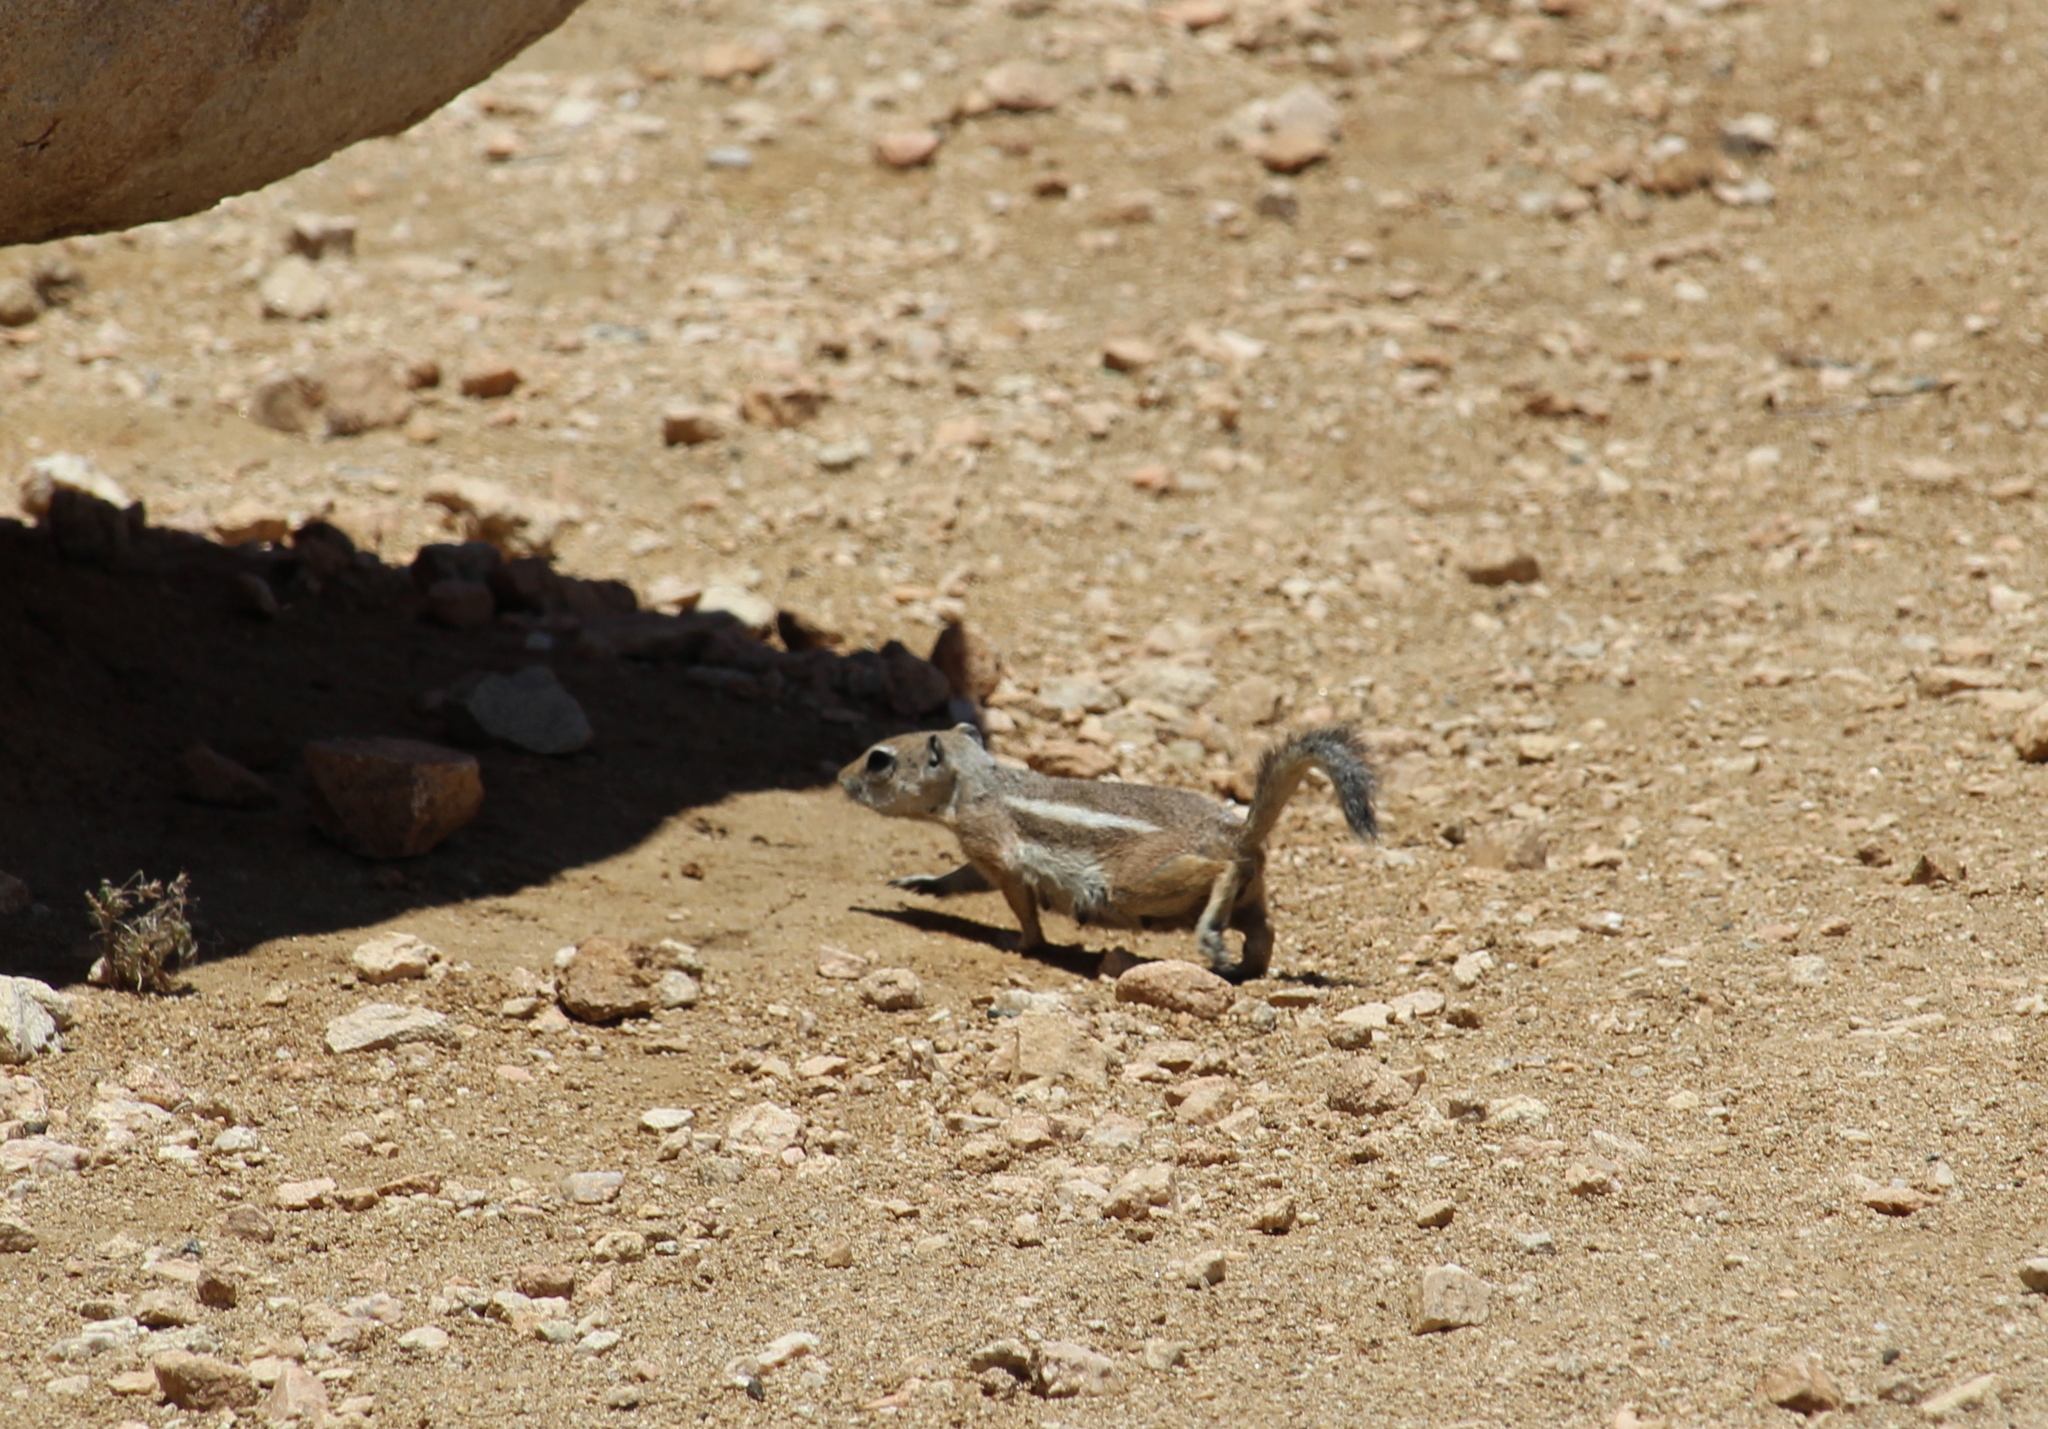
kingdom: Animalia
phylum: Chordata
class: Mammalia
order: Rodentia
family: Sciuridae
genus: Ammospermophilus
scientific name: Ammospermophilus leucurus
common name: White-tailed antelope squirrel
